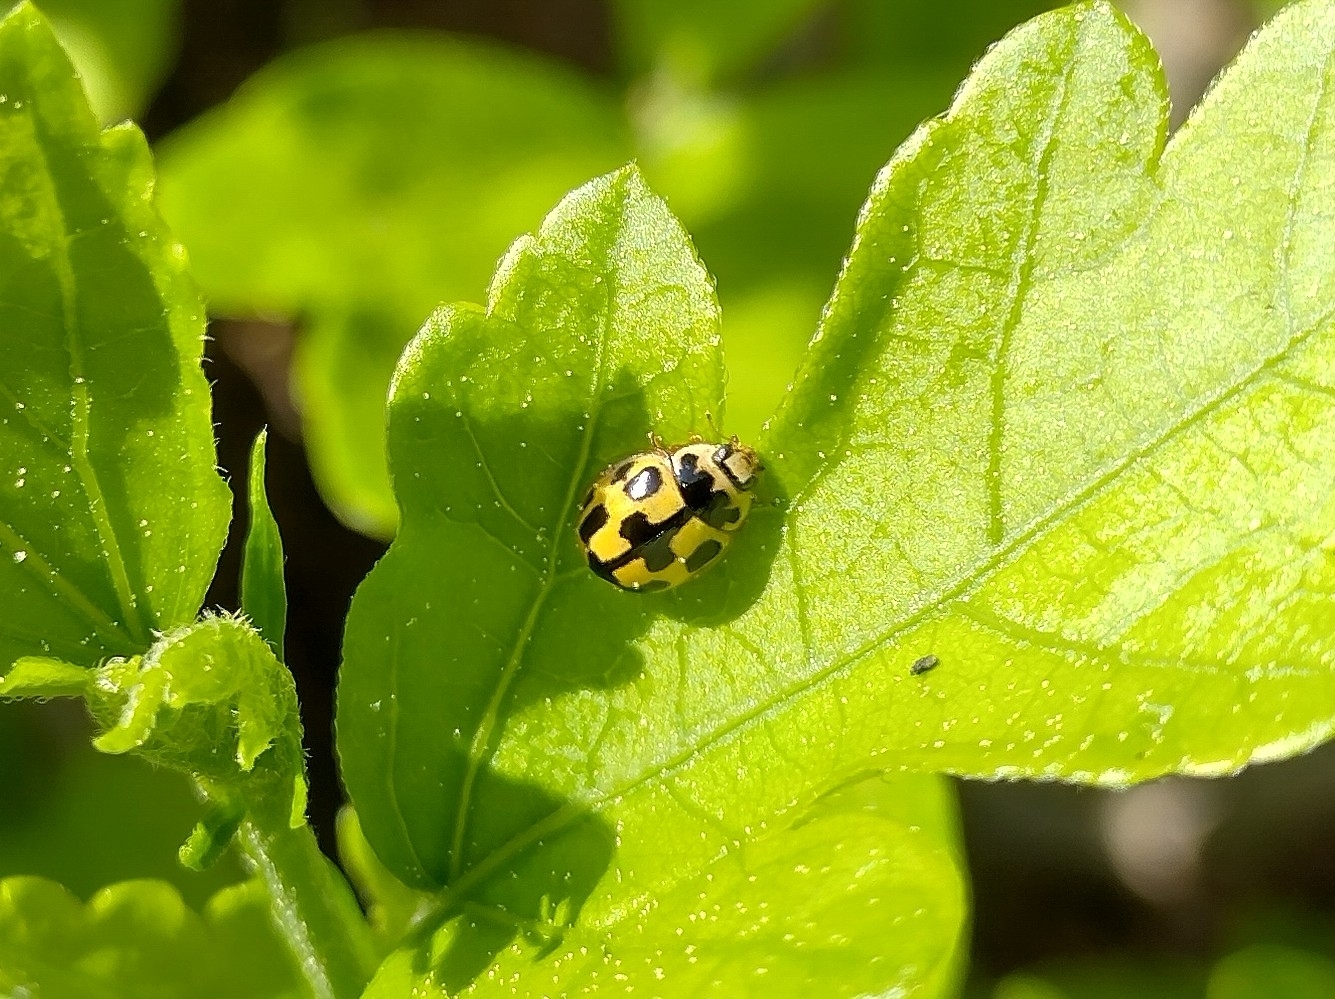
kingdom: Animalia
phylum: Arthropoda
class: Insecta
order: Coleoptera
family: Coccinellidae
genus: Propylaea
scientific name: Propylaea quatuordecimpunctata
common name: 14-spotted ladybird beetle
